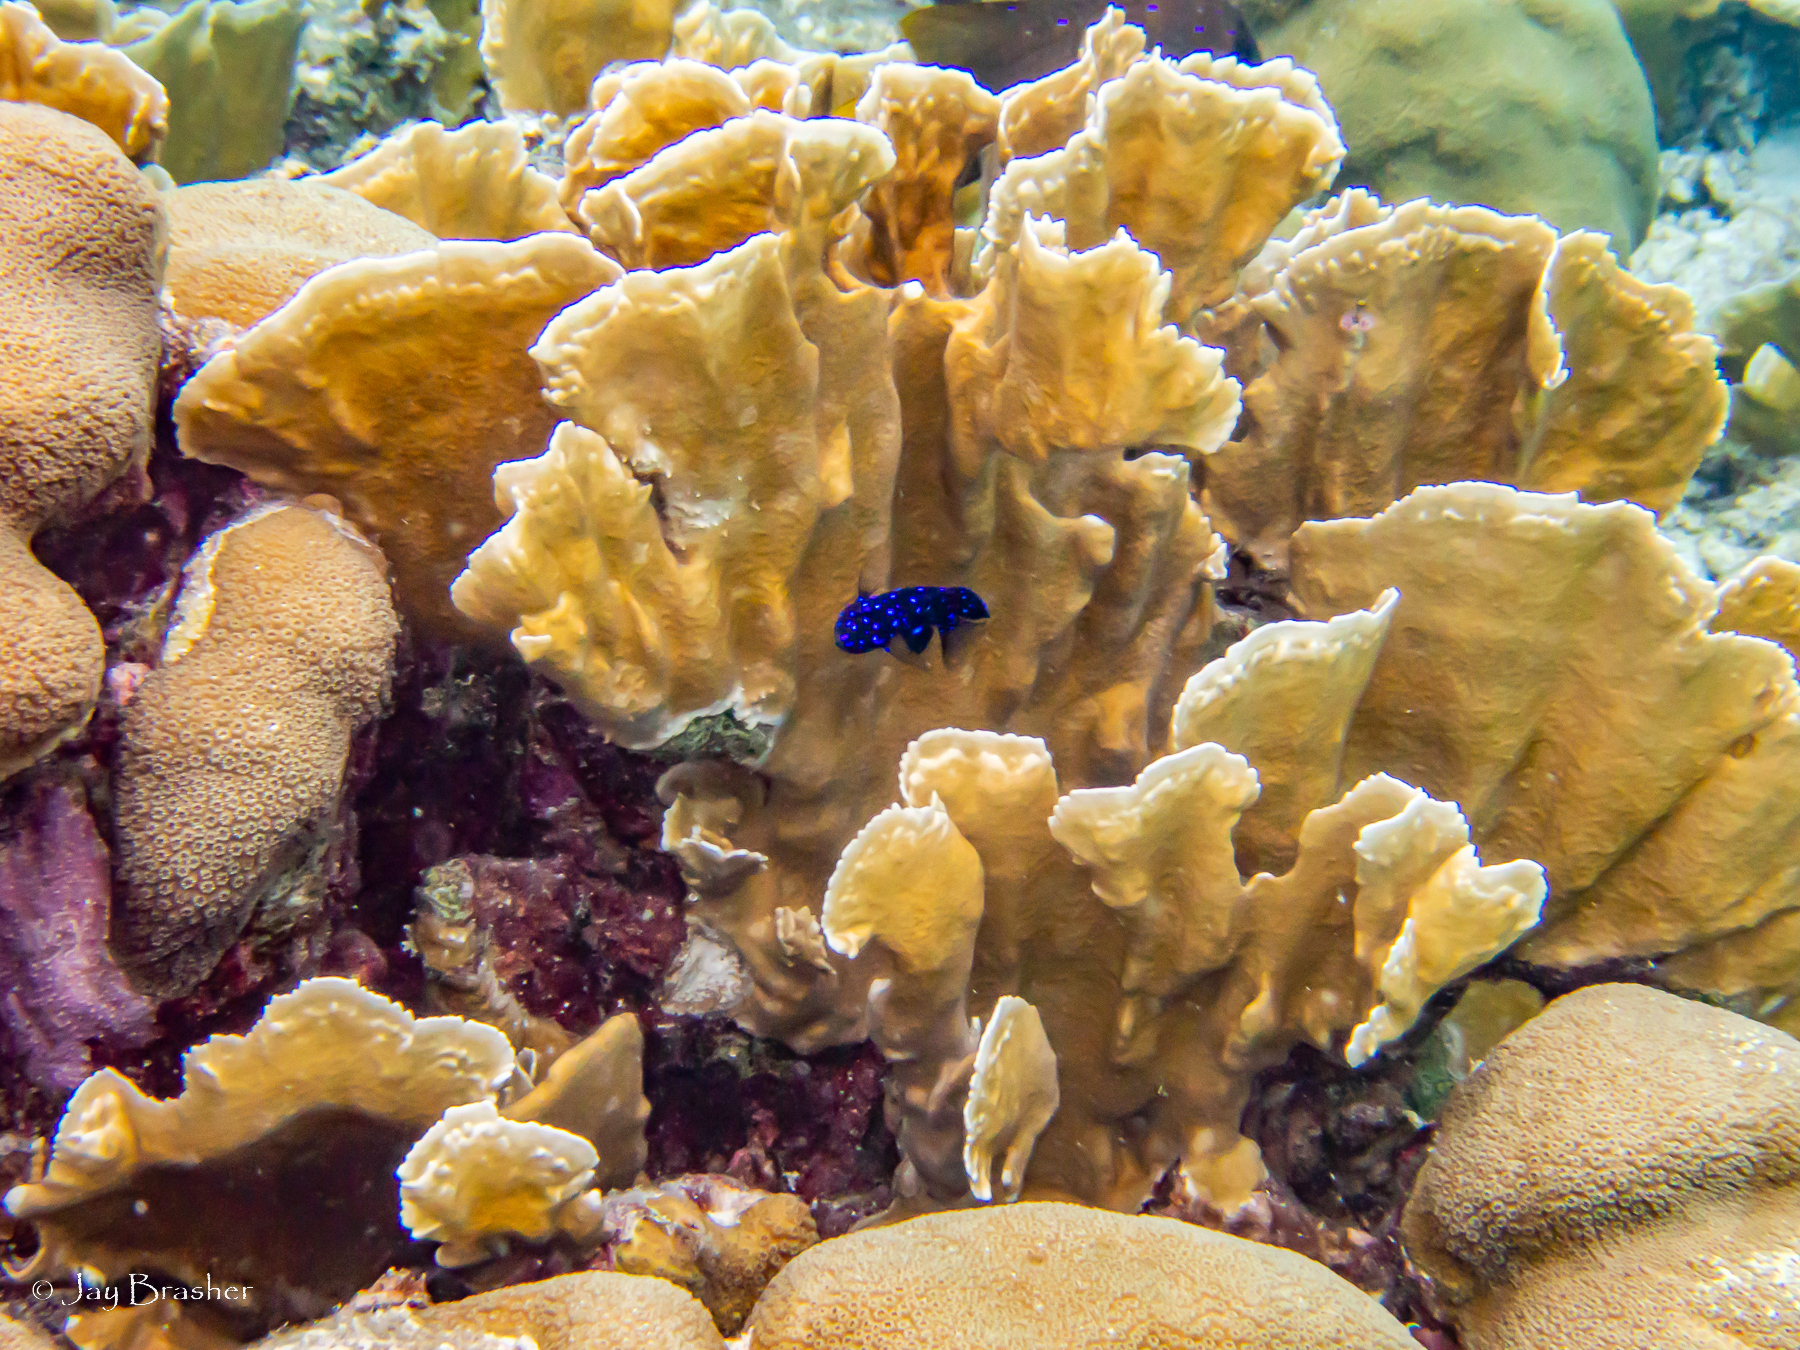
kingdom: Animalia
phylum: Chordata
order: Perciformes
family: Pomacentridae
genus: Microspathodon
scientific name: Microspathodon chrysurus
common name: Yellowtail damselfish
